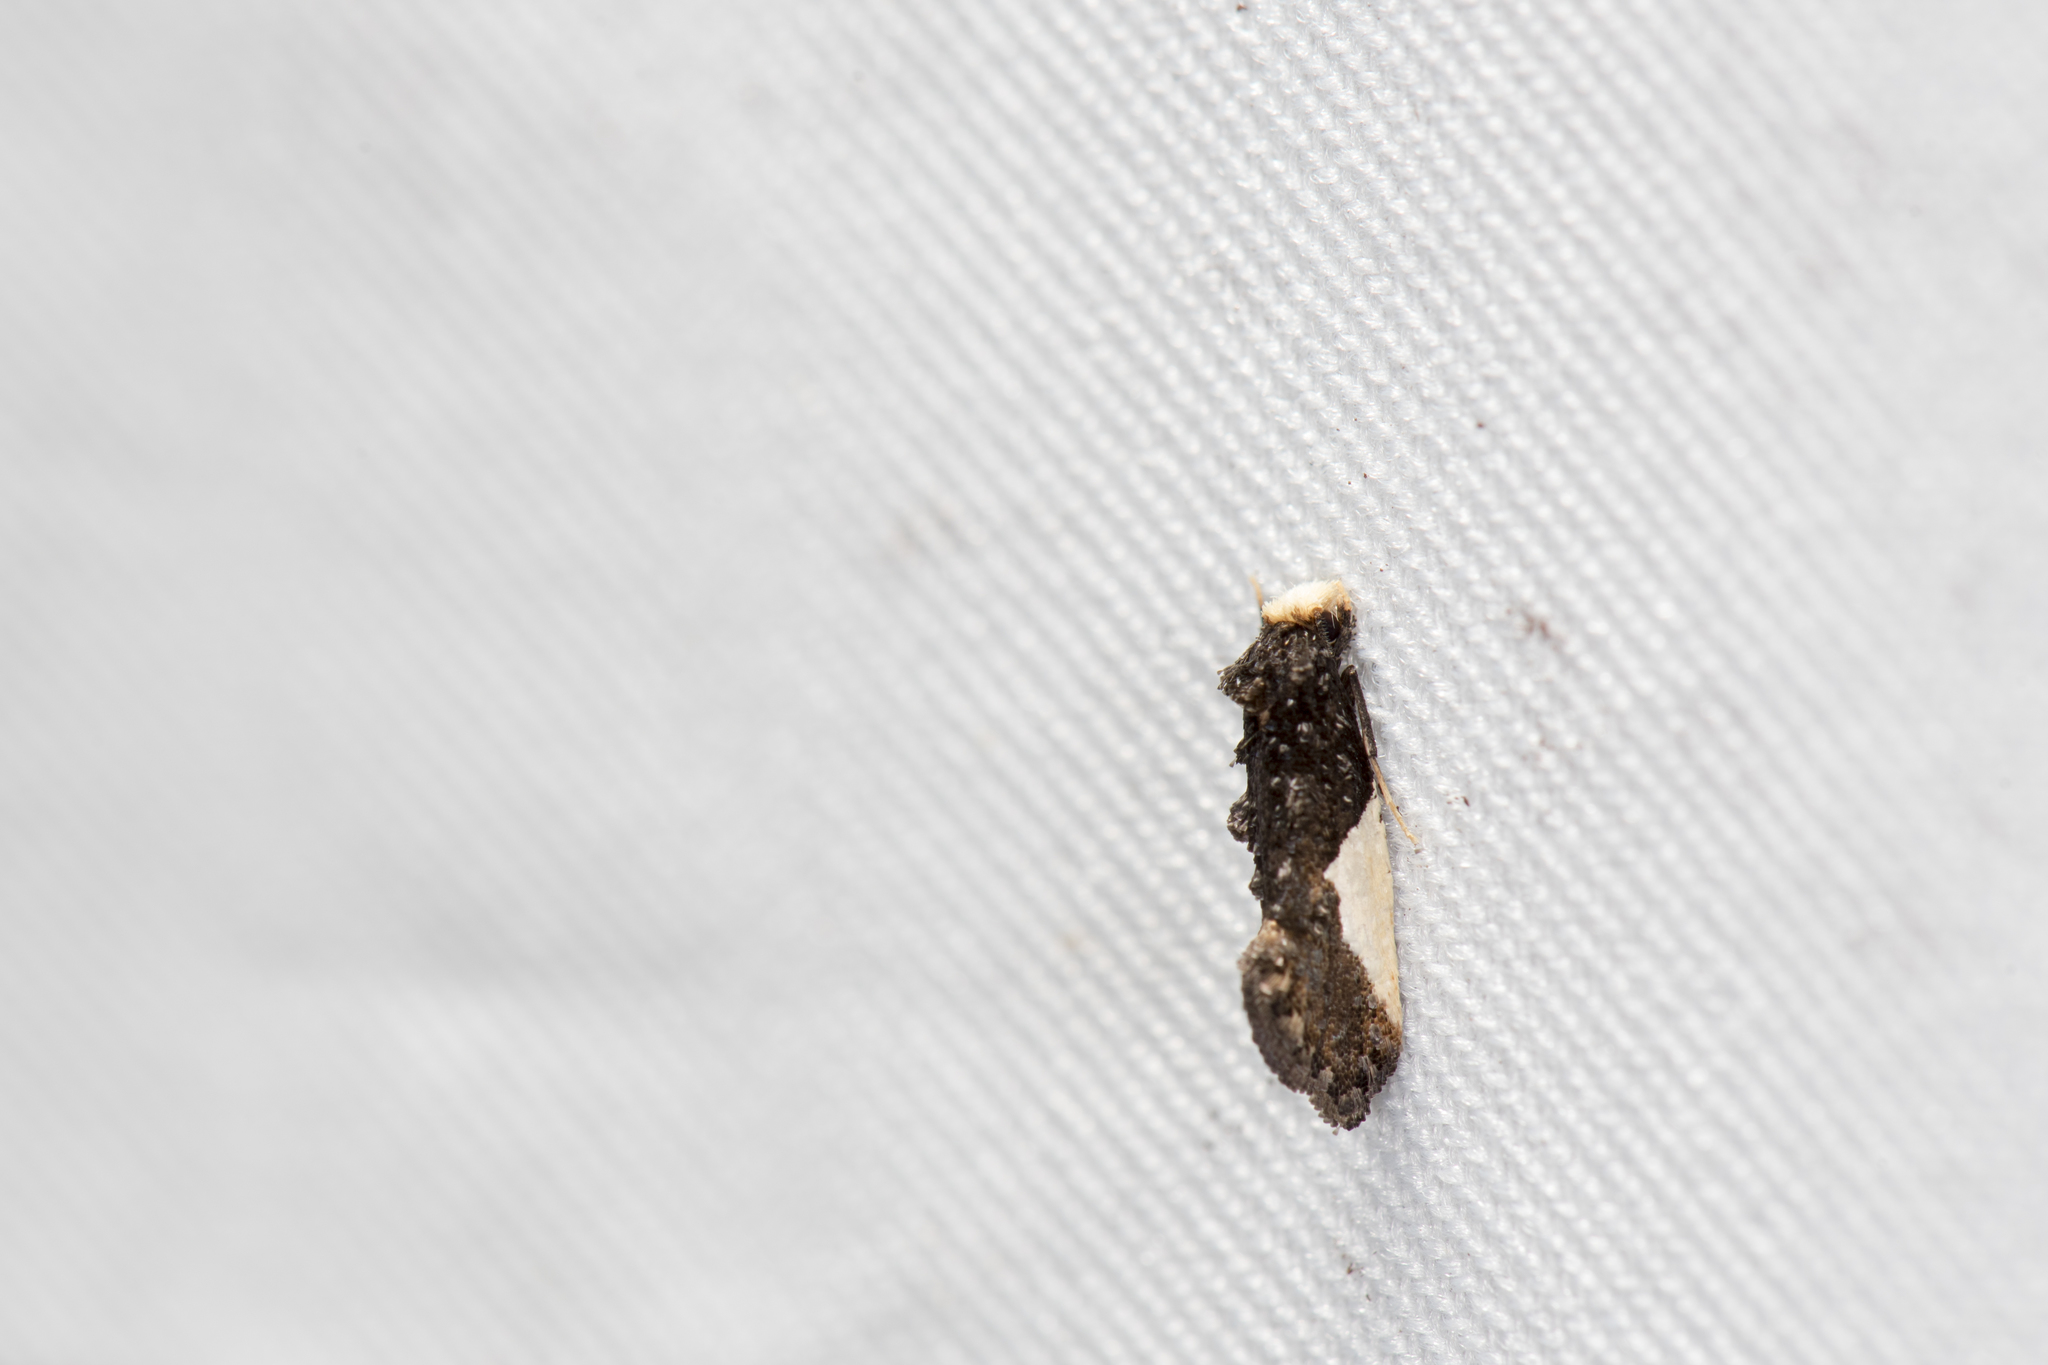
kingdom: Animalia
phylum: Arthropoda
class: Insecta
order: Lepidoptera
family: Tineidae
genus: Monopis
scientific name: Monopis monachella
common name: Moth
